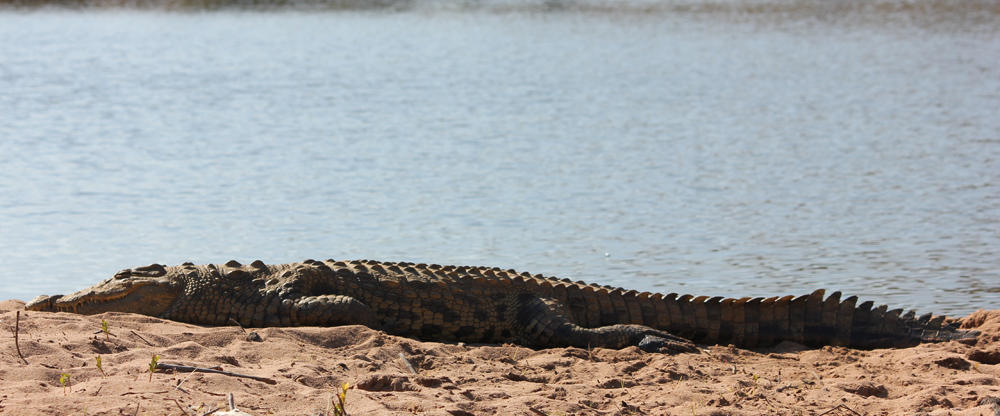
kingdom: Animalia
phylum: Chordata
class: Crocodylia
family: Crocodylidae
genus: Crocodylus
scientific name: Crocodylus niloticus
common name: Nile crocodile
